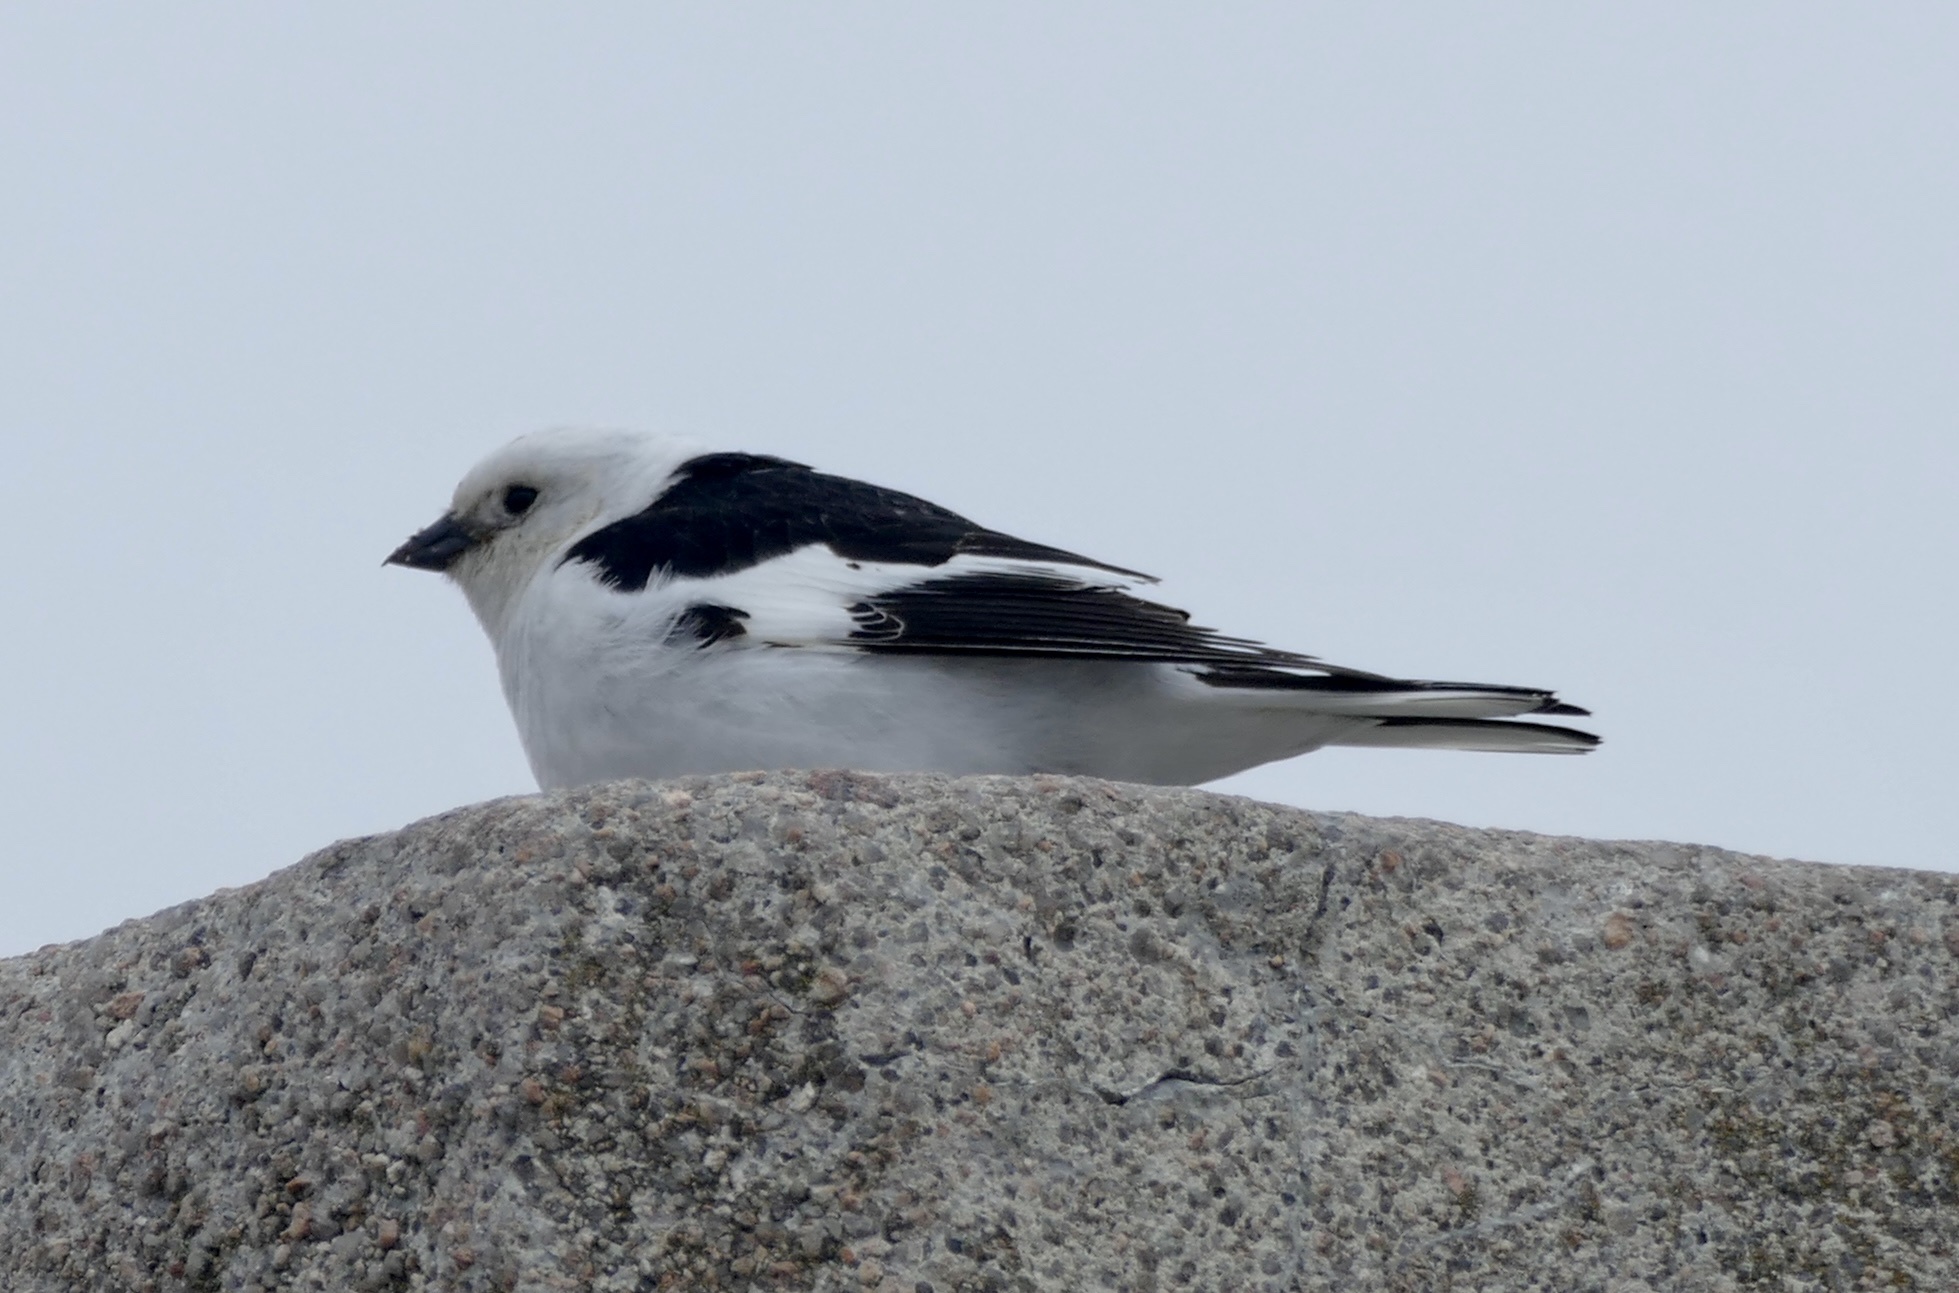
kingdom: Animalia
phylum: Chordata
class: Aves
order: Passeriformes
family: Calcariidae
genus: Plectrophenax
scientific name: Plectrophenax nivalis
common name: Snow bunting
